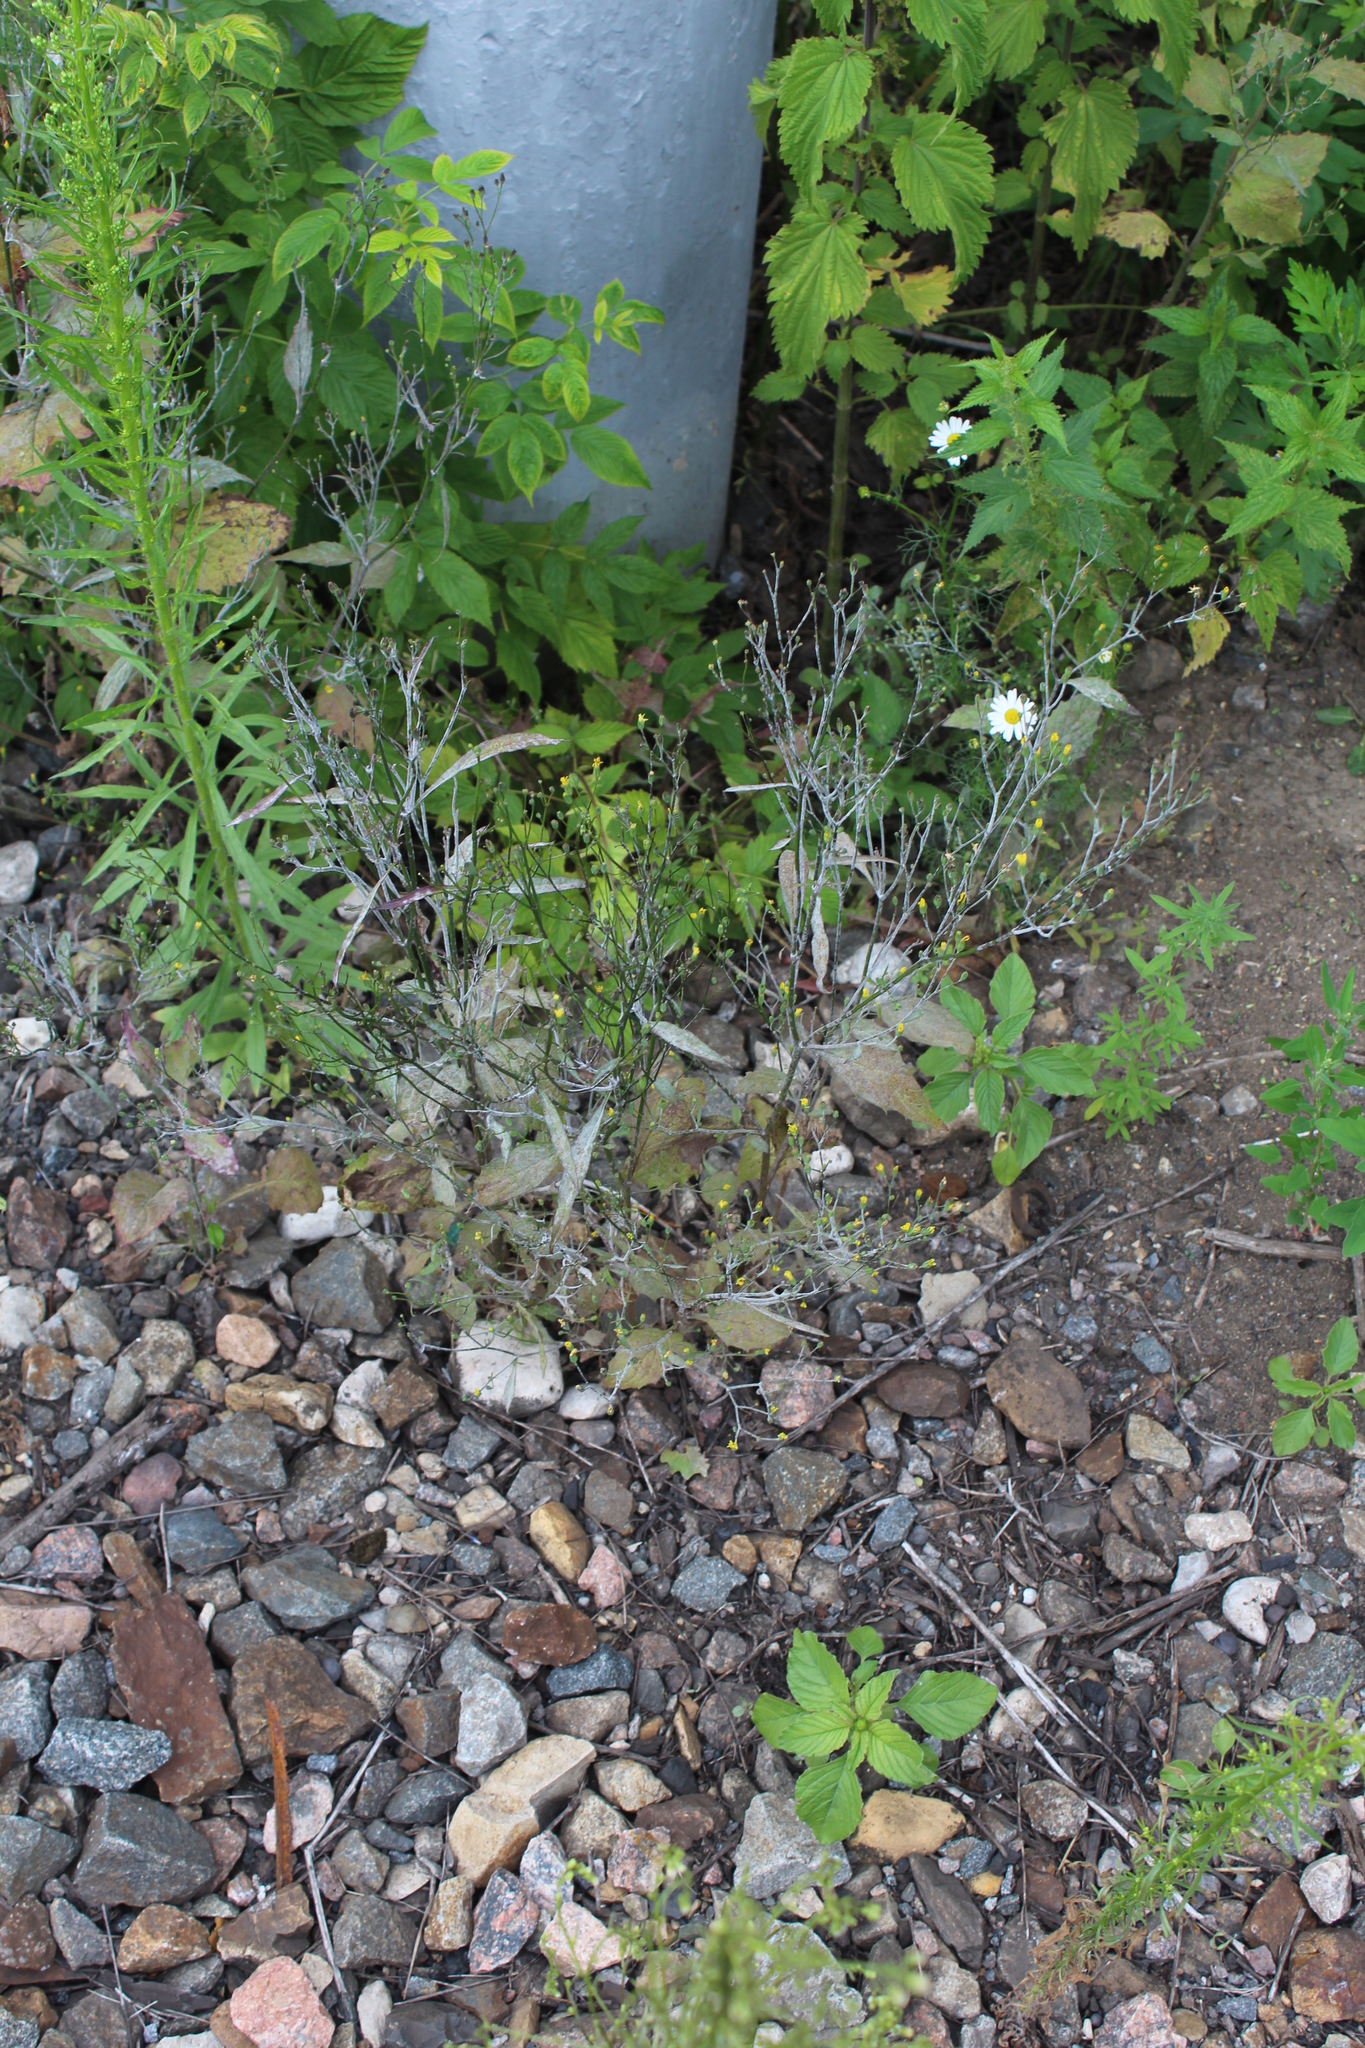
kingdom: Plantae
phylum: Tracheophyta
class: Magnoliopsida
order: Asterales
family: Asteraceae
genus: Lapsana
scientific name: Lapsana communis
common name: Nipplewort
